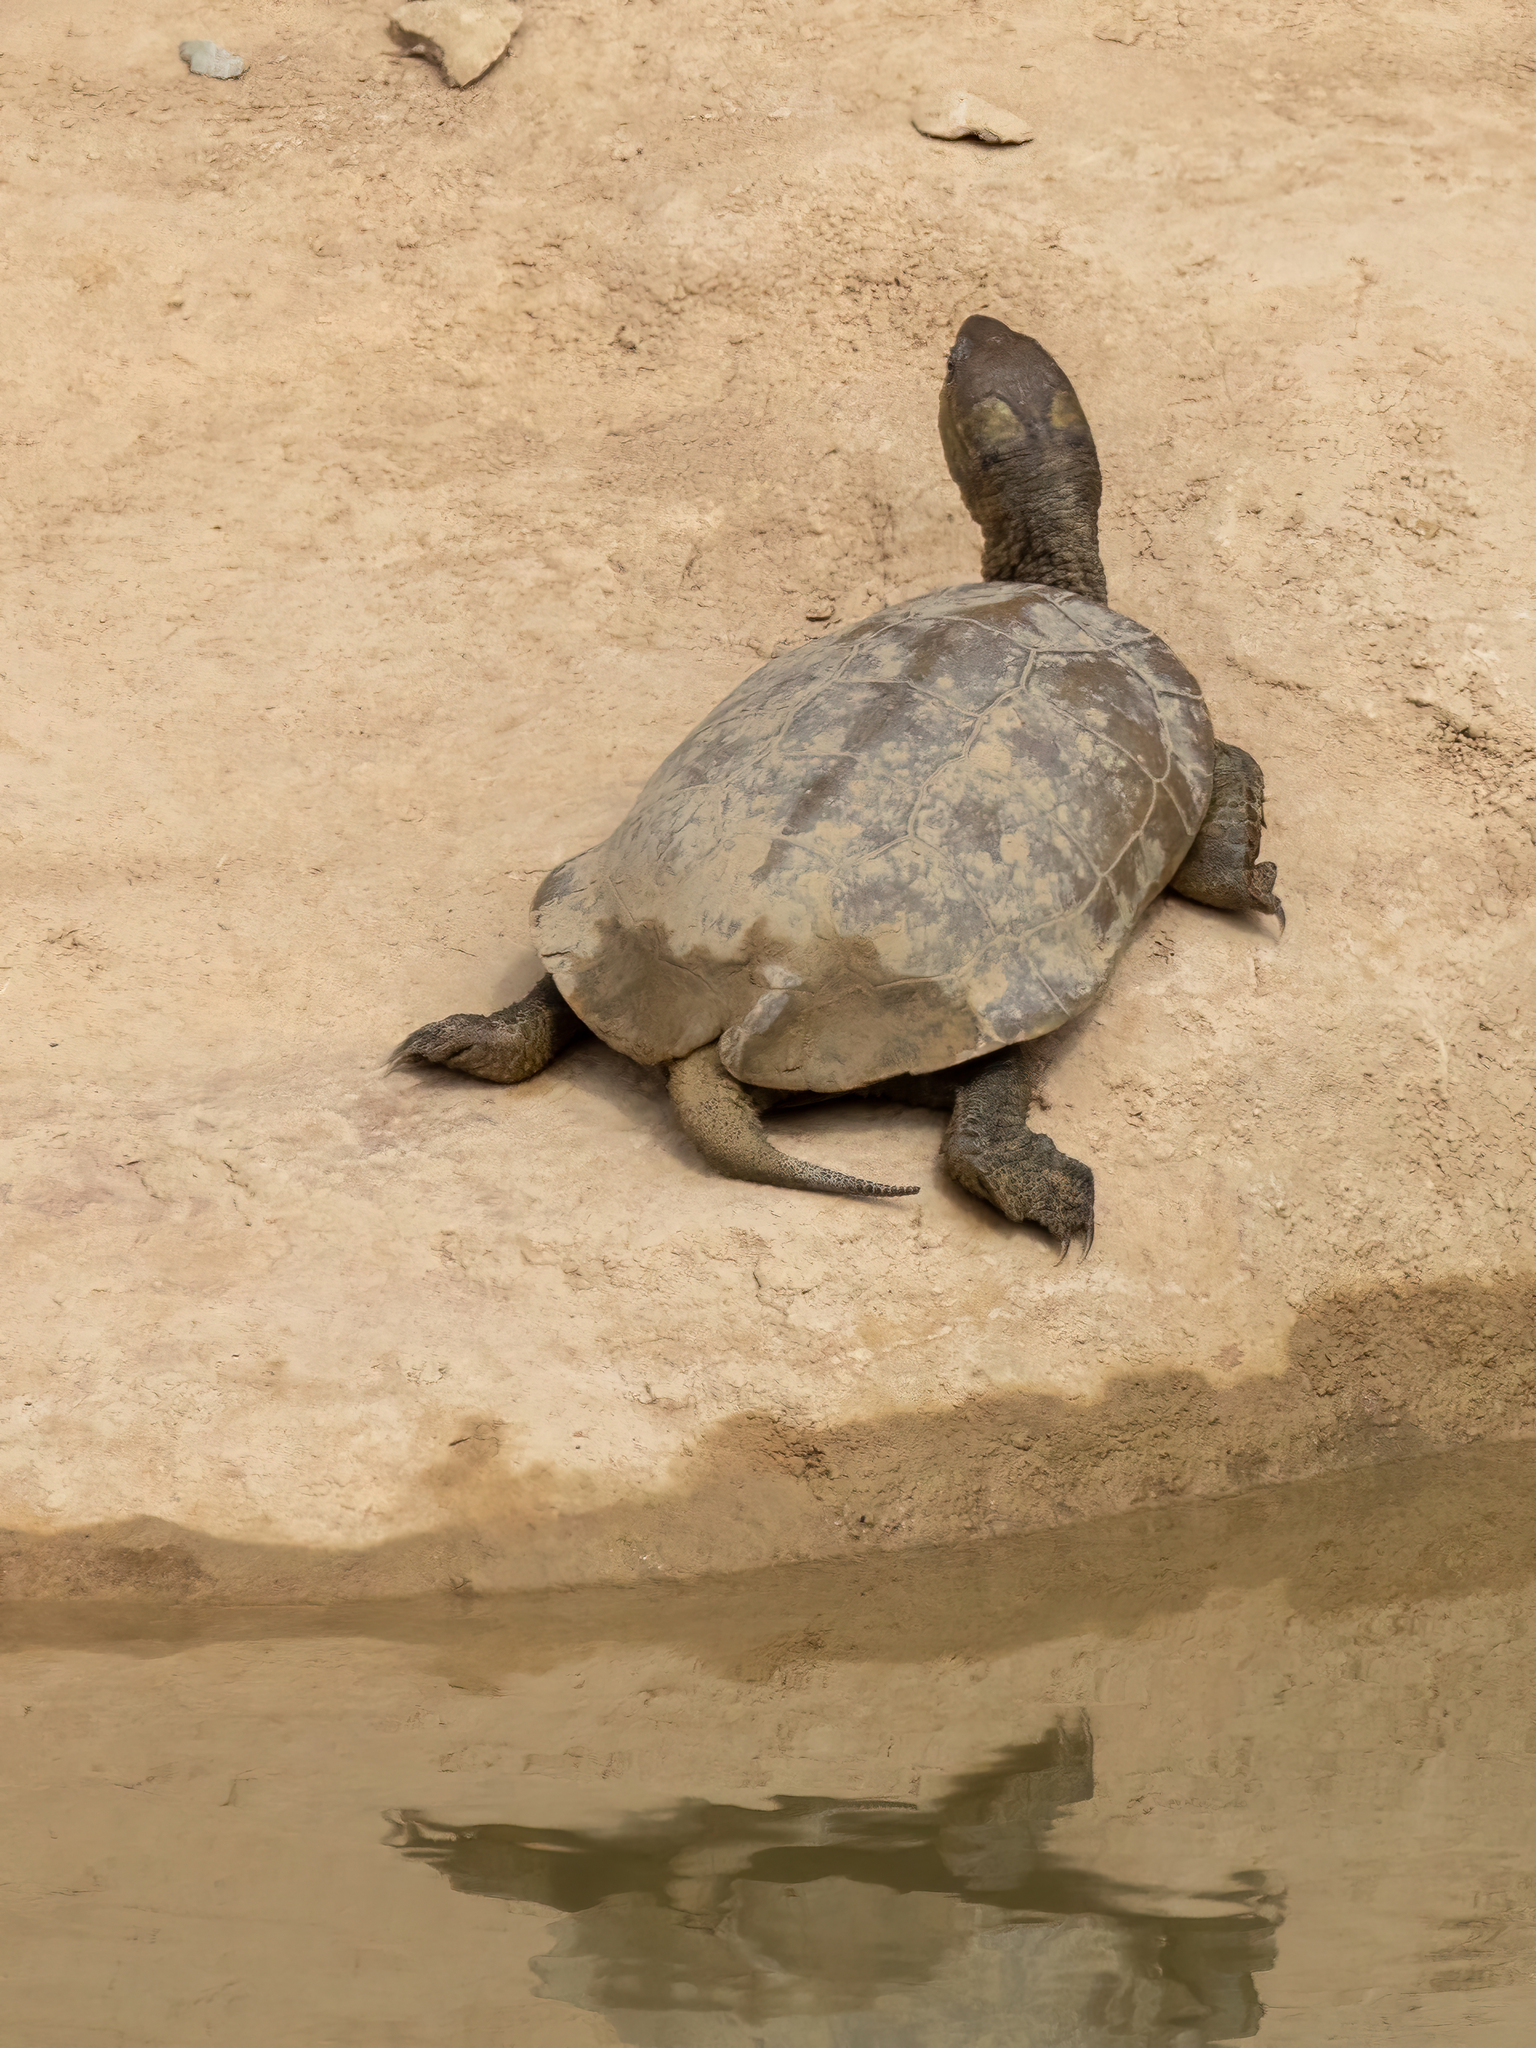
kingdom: Animalia
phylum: Chordata
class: Testudines
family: Geoemydidae
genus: Mauremys
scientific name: Mauremys leprosa
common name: Mediterranean pond turtle
